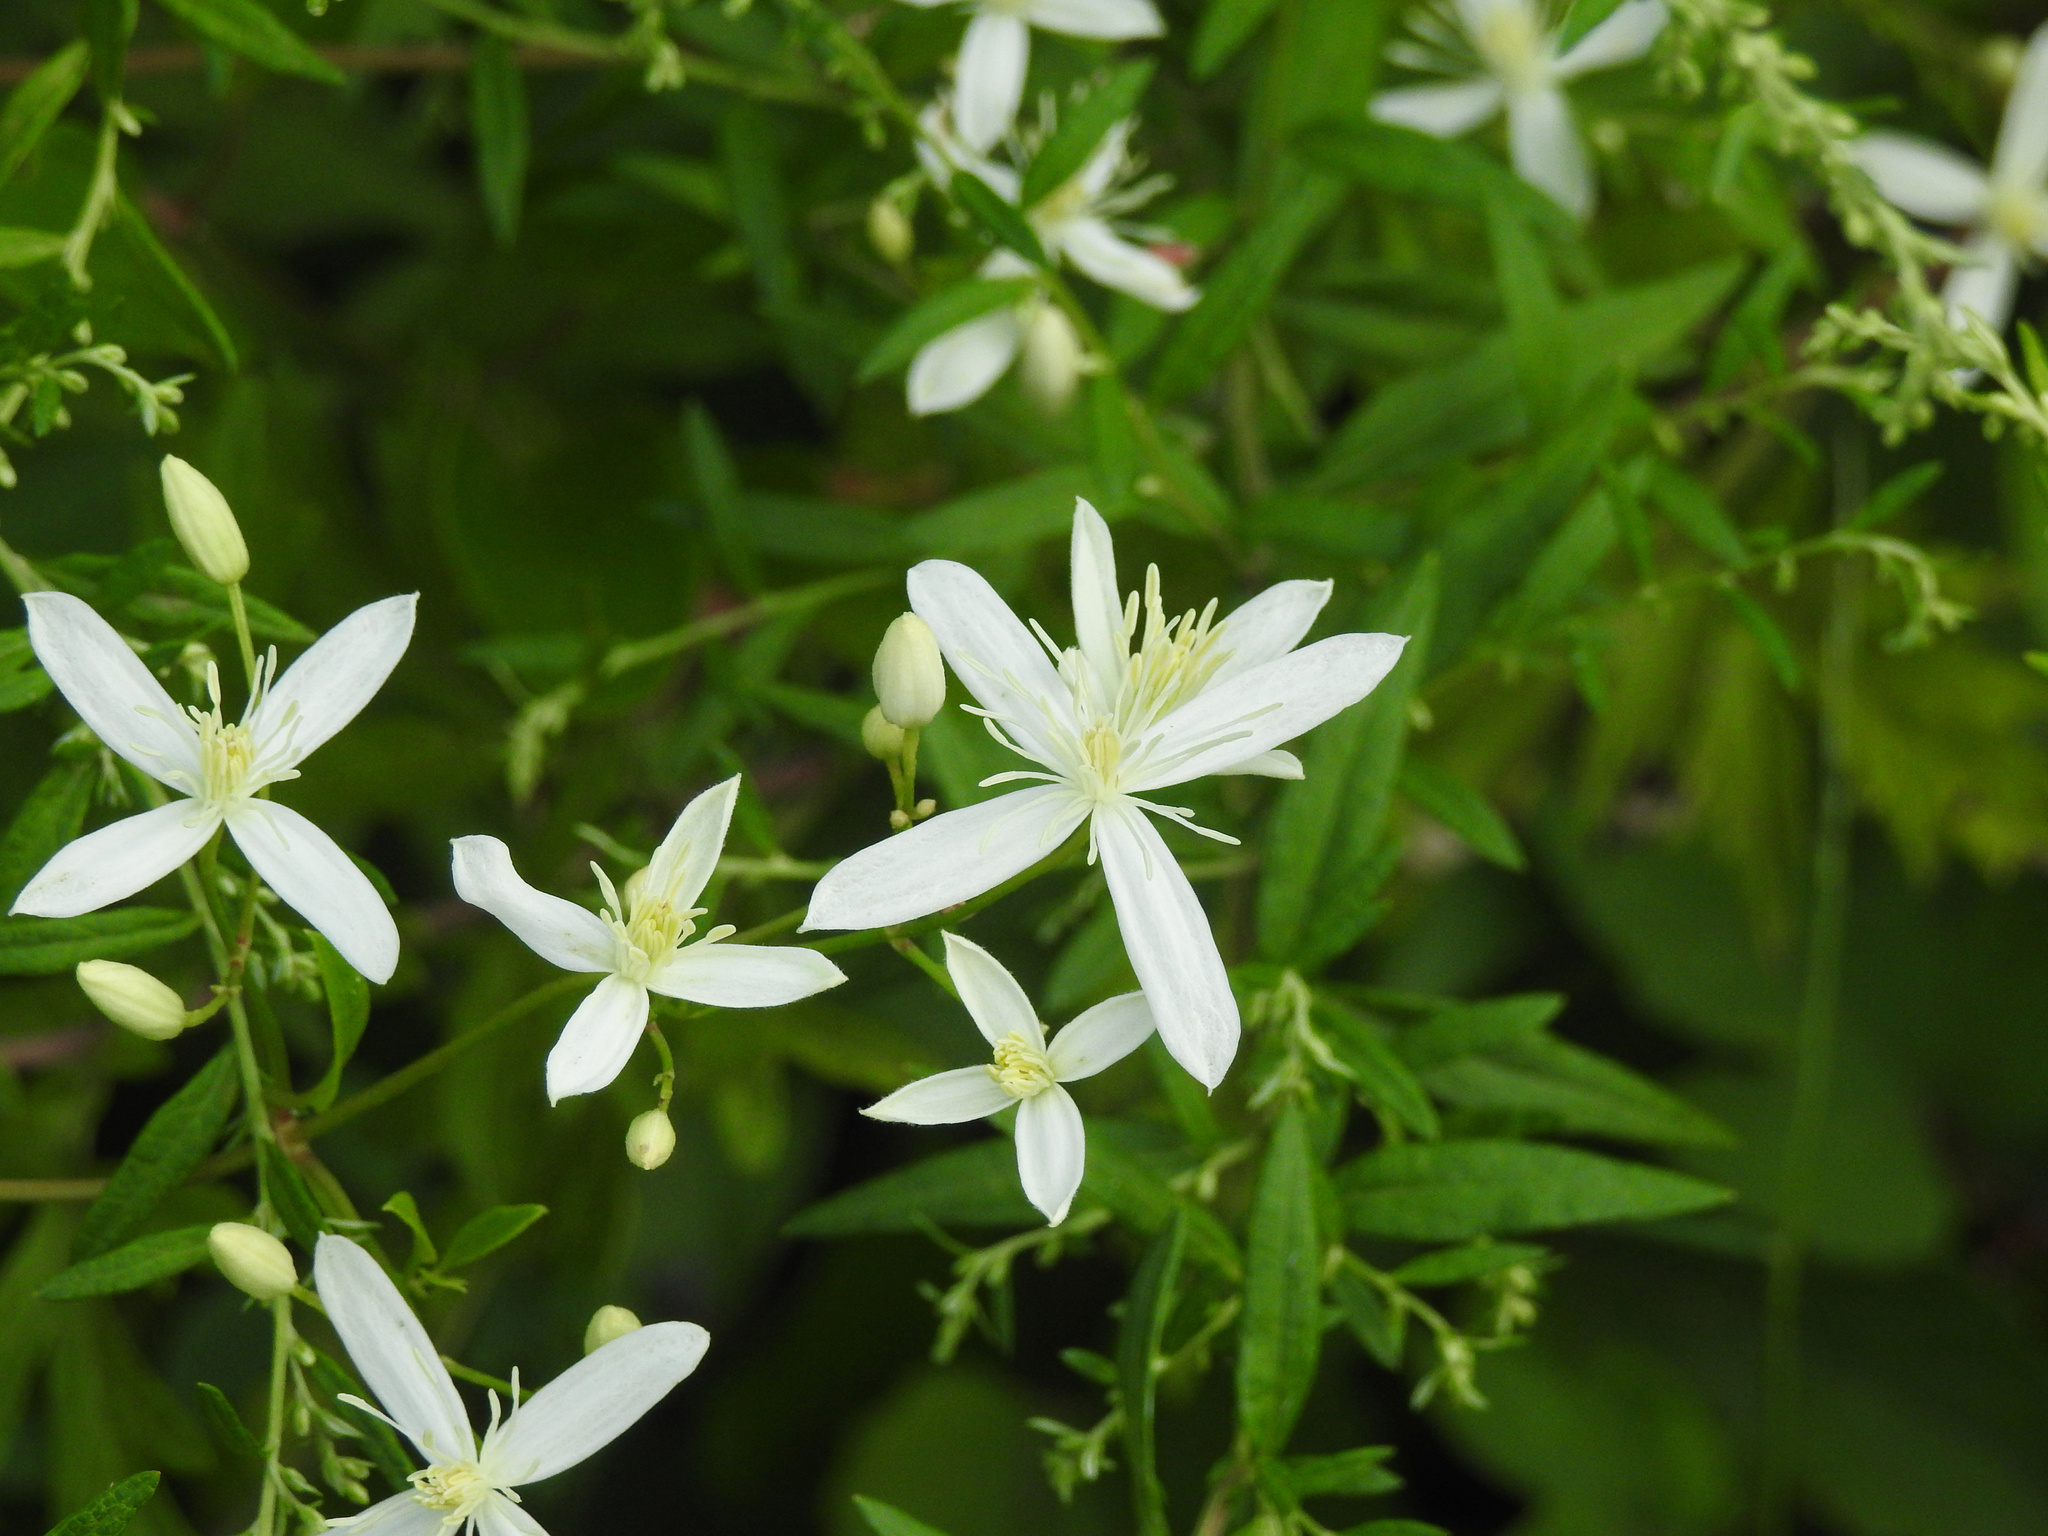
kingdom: Plantae
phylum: Tracheophyta
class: Magnoliopsida
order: Ranunculales
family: Ranunculaceae
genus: Clematis
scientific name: Clematis terniflora
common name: Sweet autumn clematis
